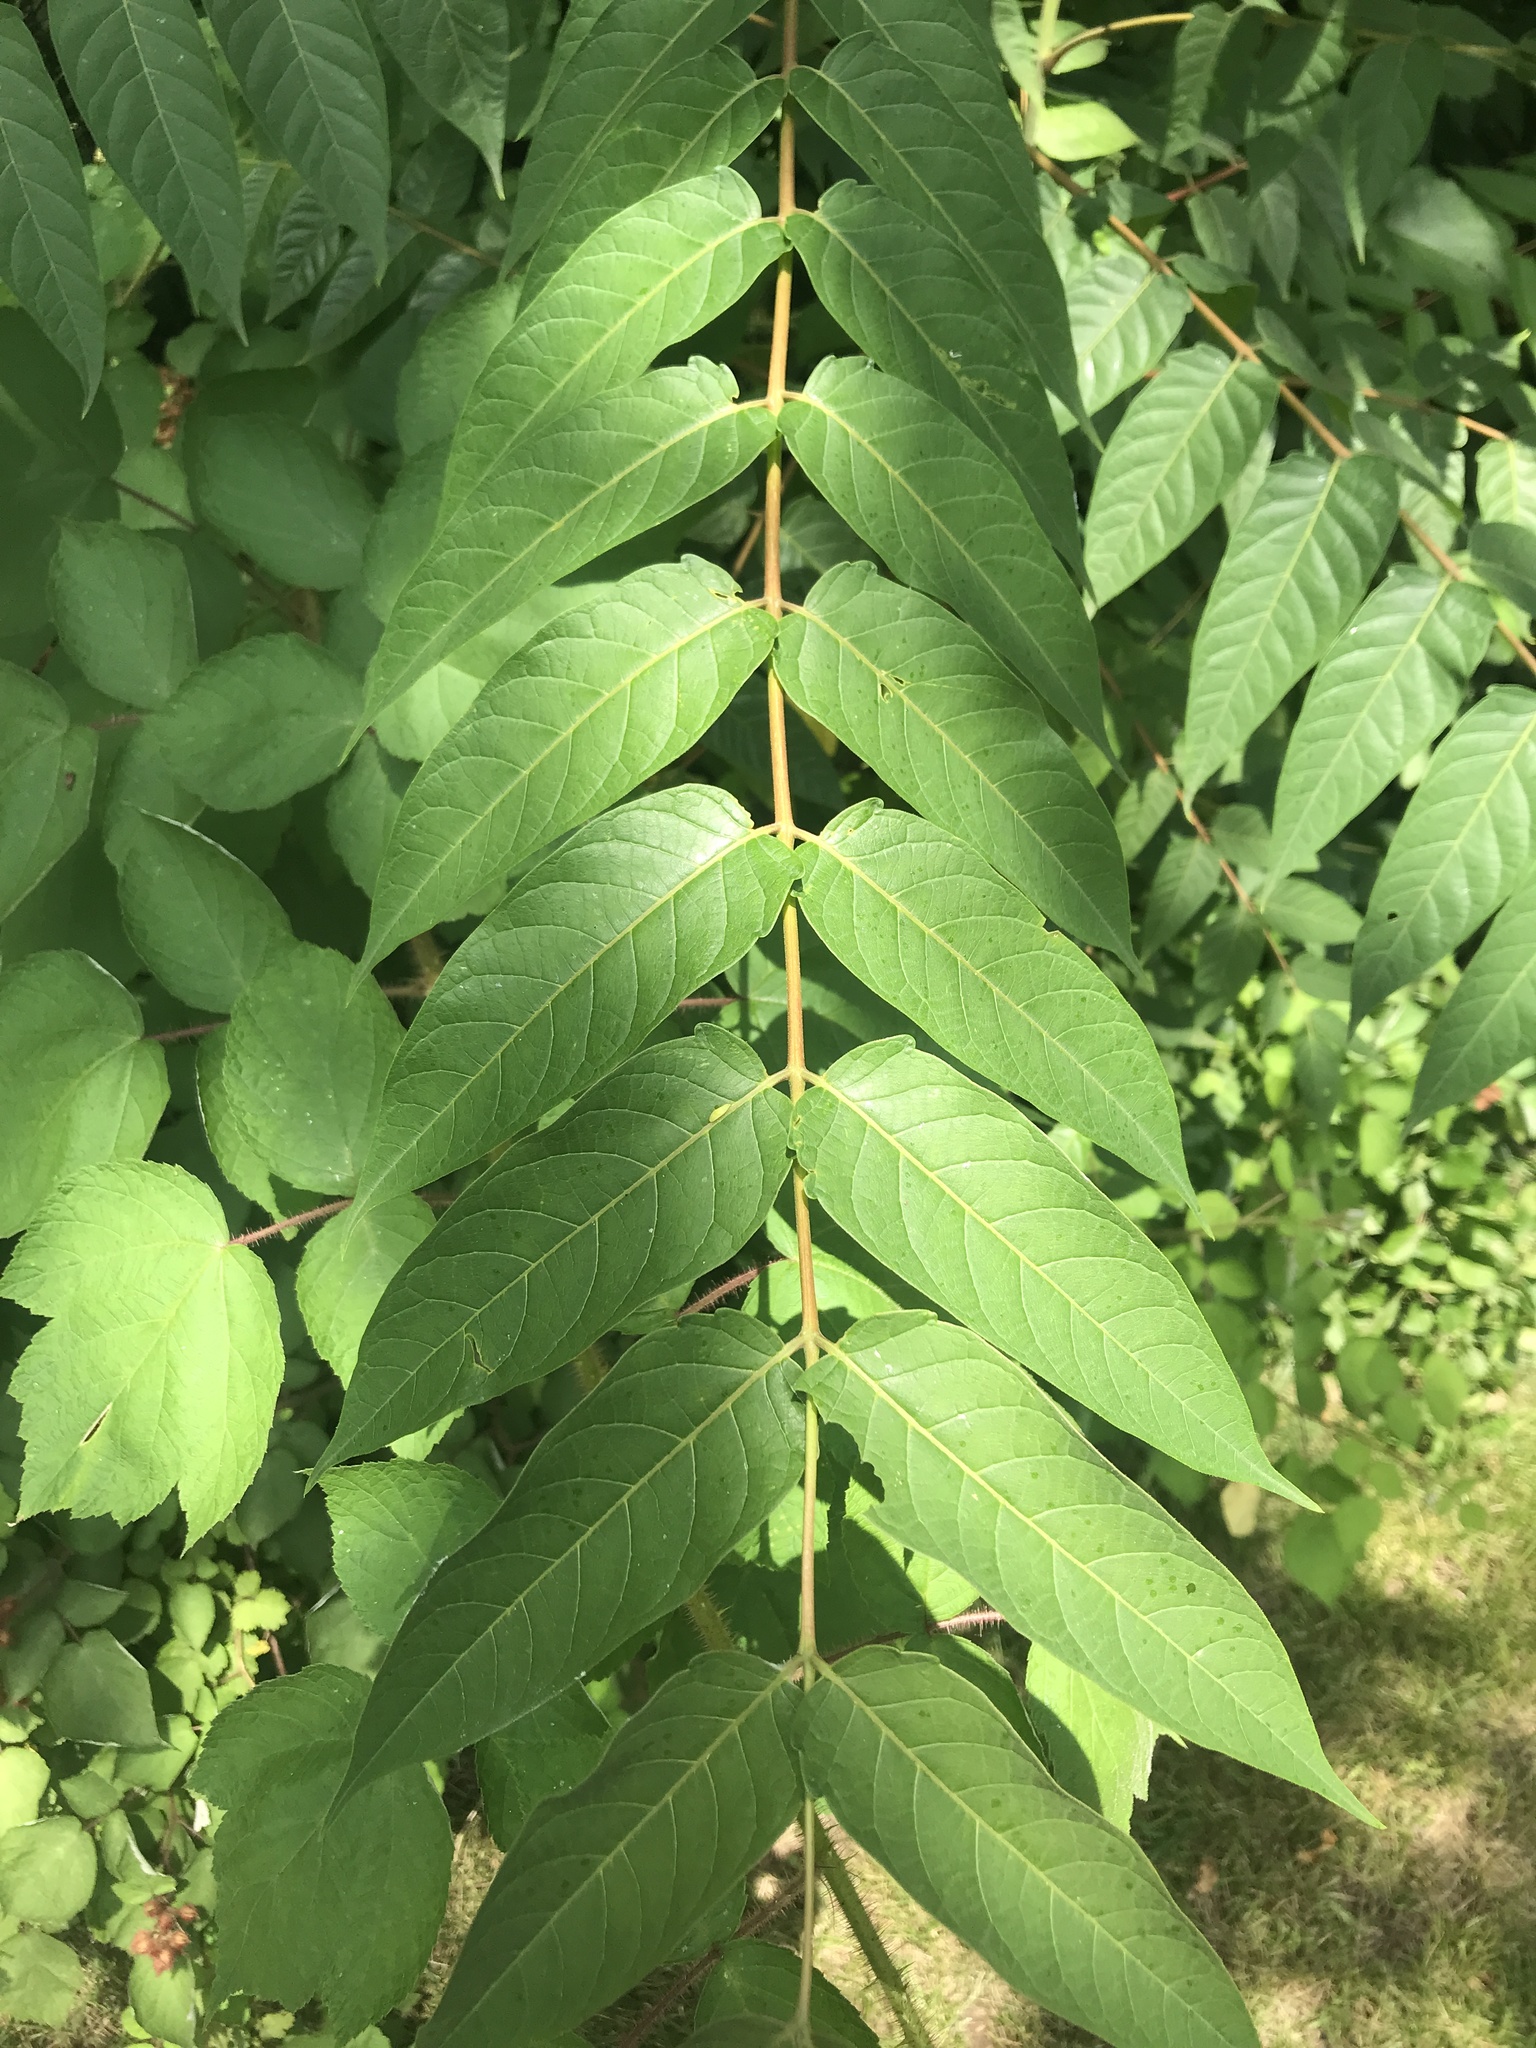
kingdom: Plantae
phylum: Tracheophyta
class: Magnoliopsida
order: Sapindales
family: Simaroubaceae
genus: Ailanthus
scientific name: Ailanthus altissima
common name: Tree-of-heaven
